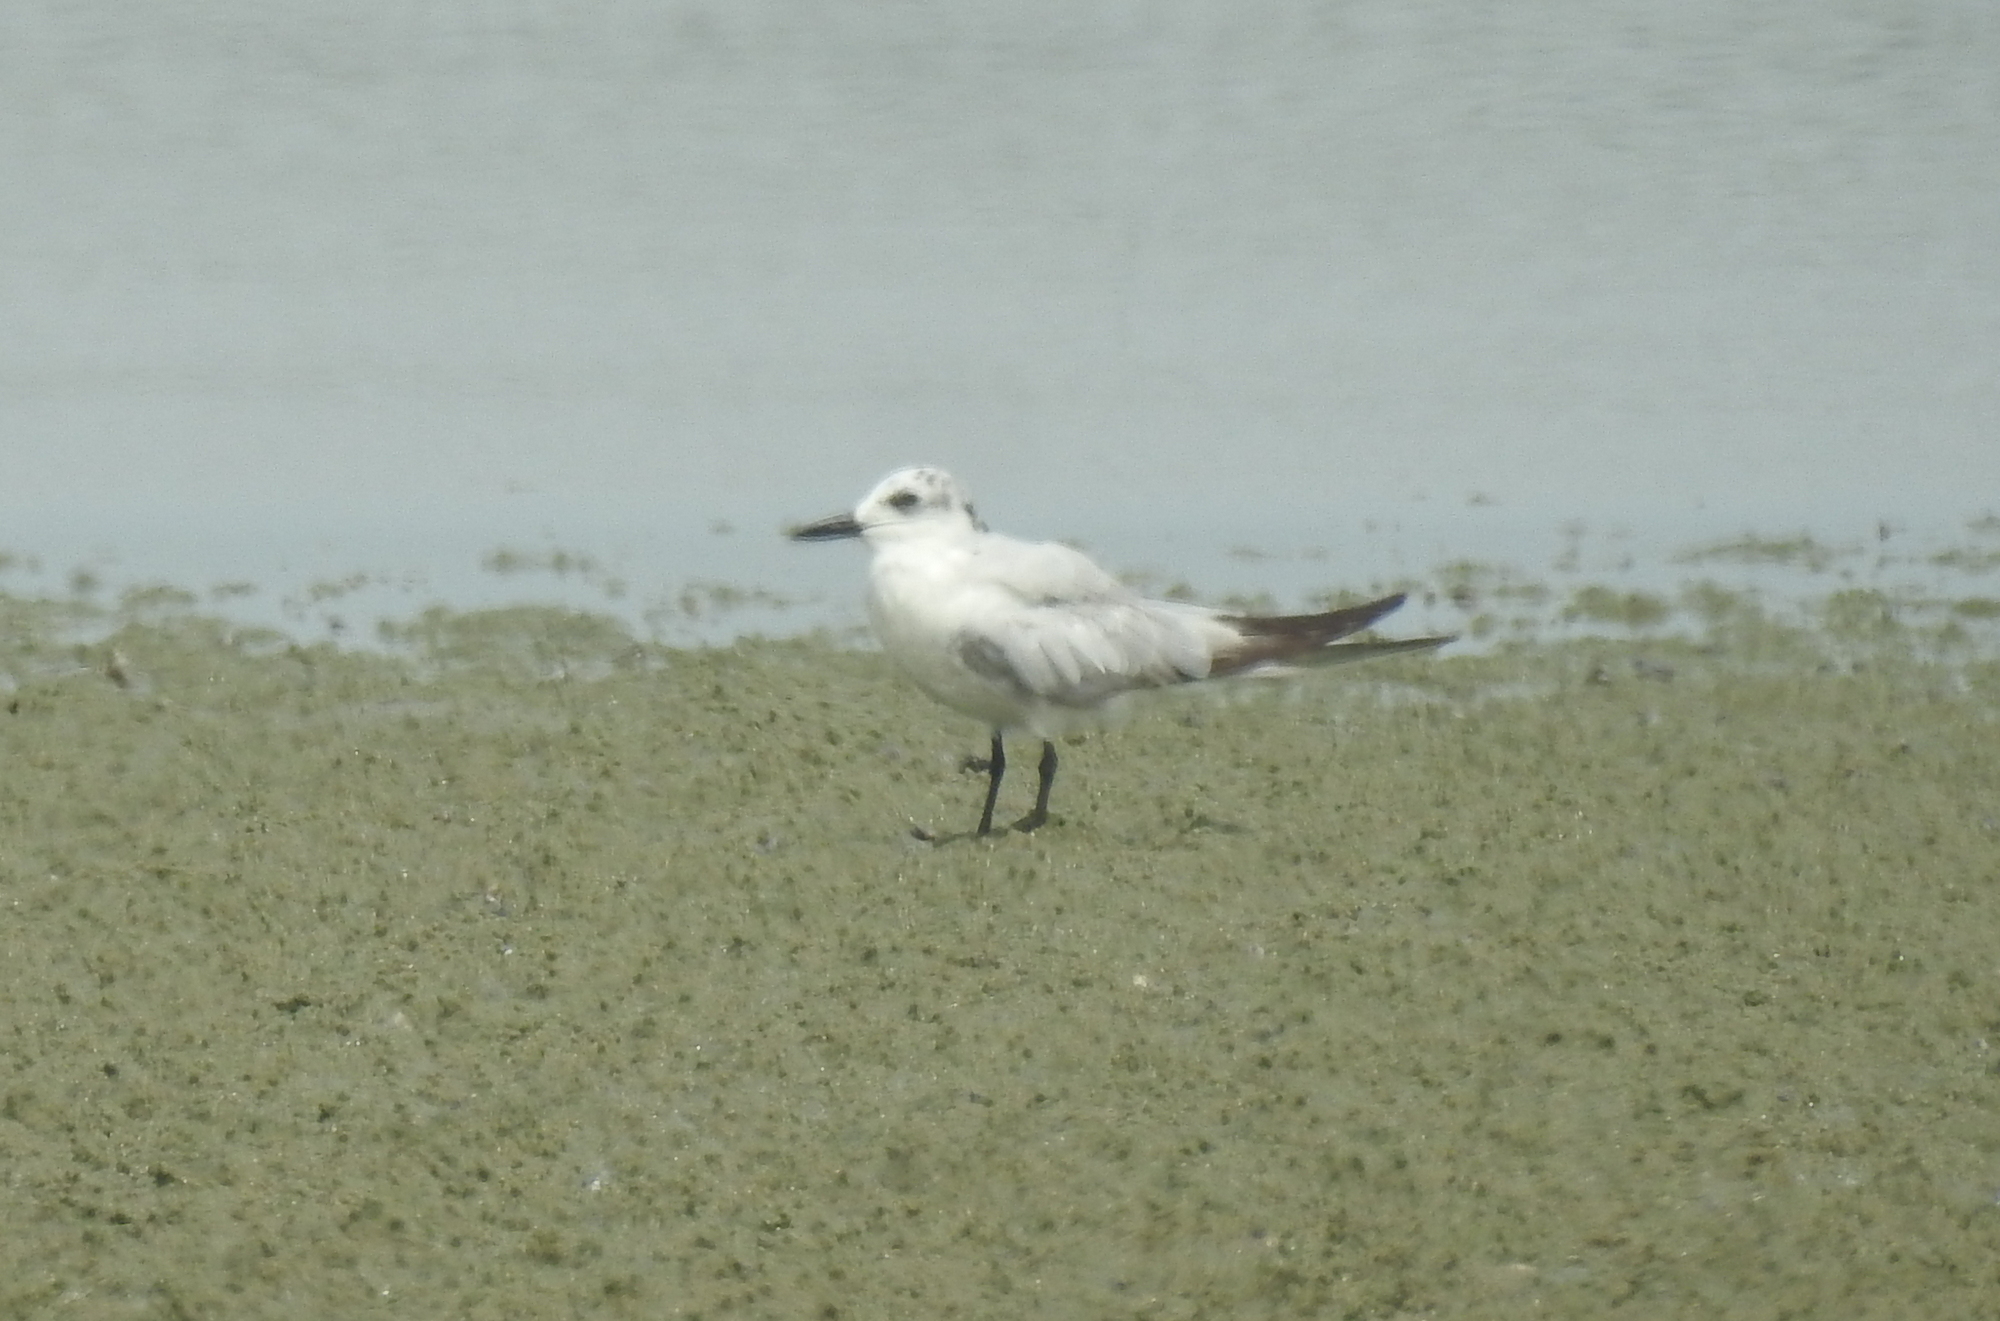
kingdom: Animalia
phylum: Chordata
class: Aves
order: Charadriiformes
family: Laridae
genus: Gelochelidon
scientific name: Gelochelidon nilotica
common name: Gull-billed tern
